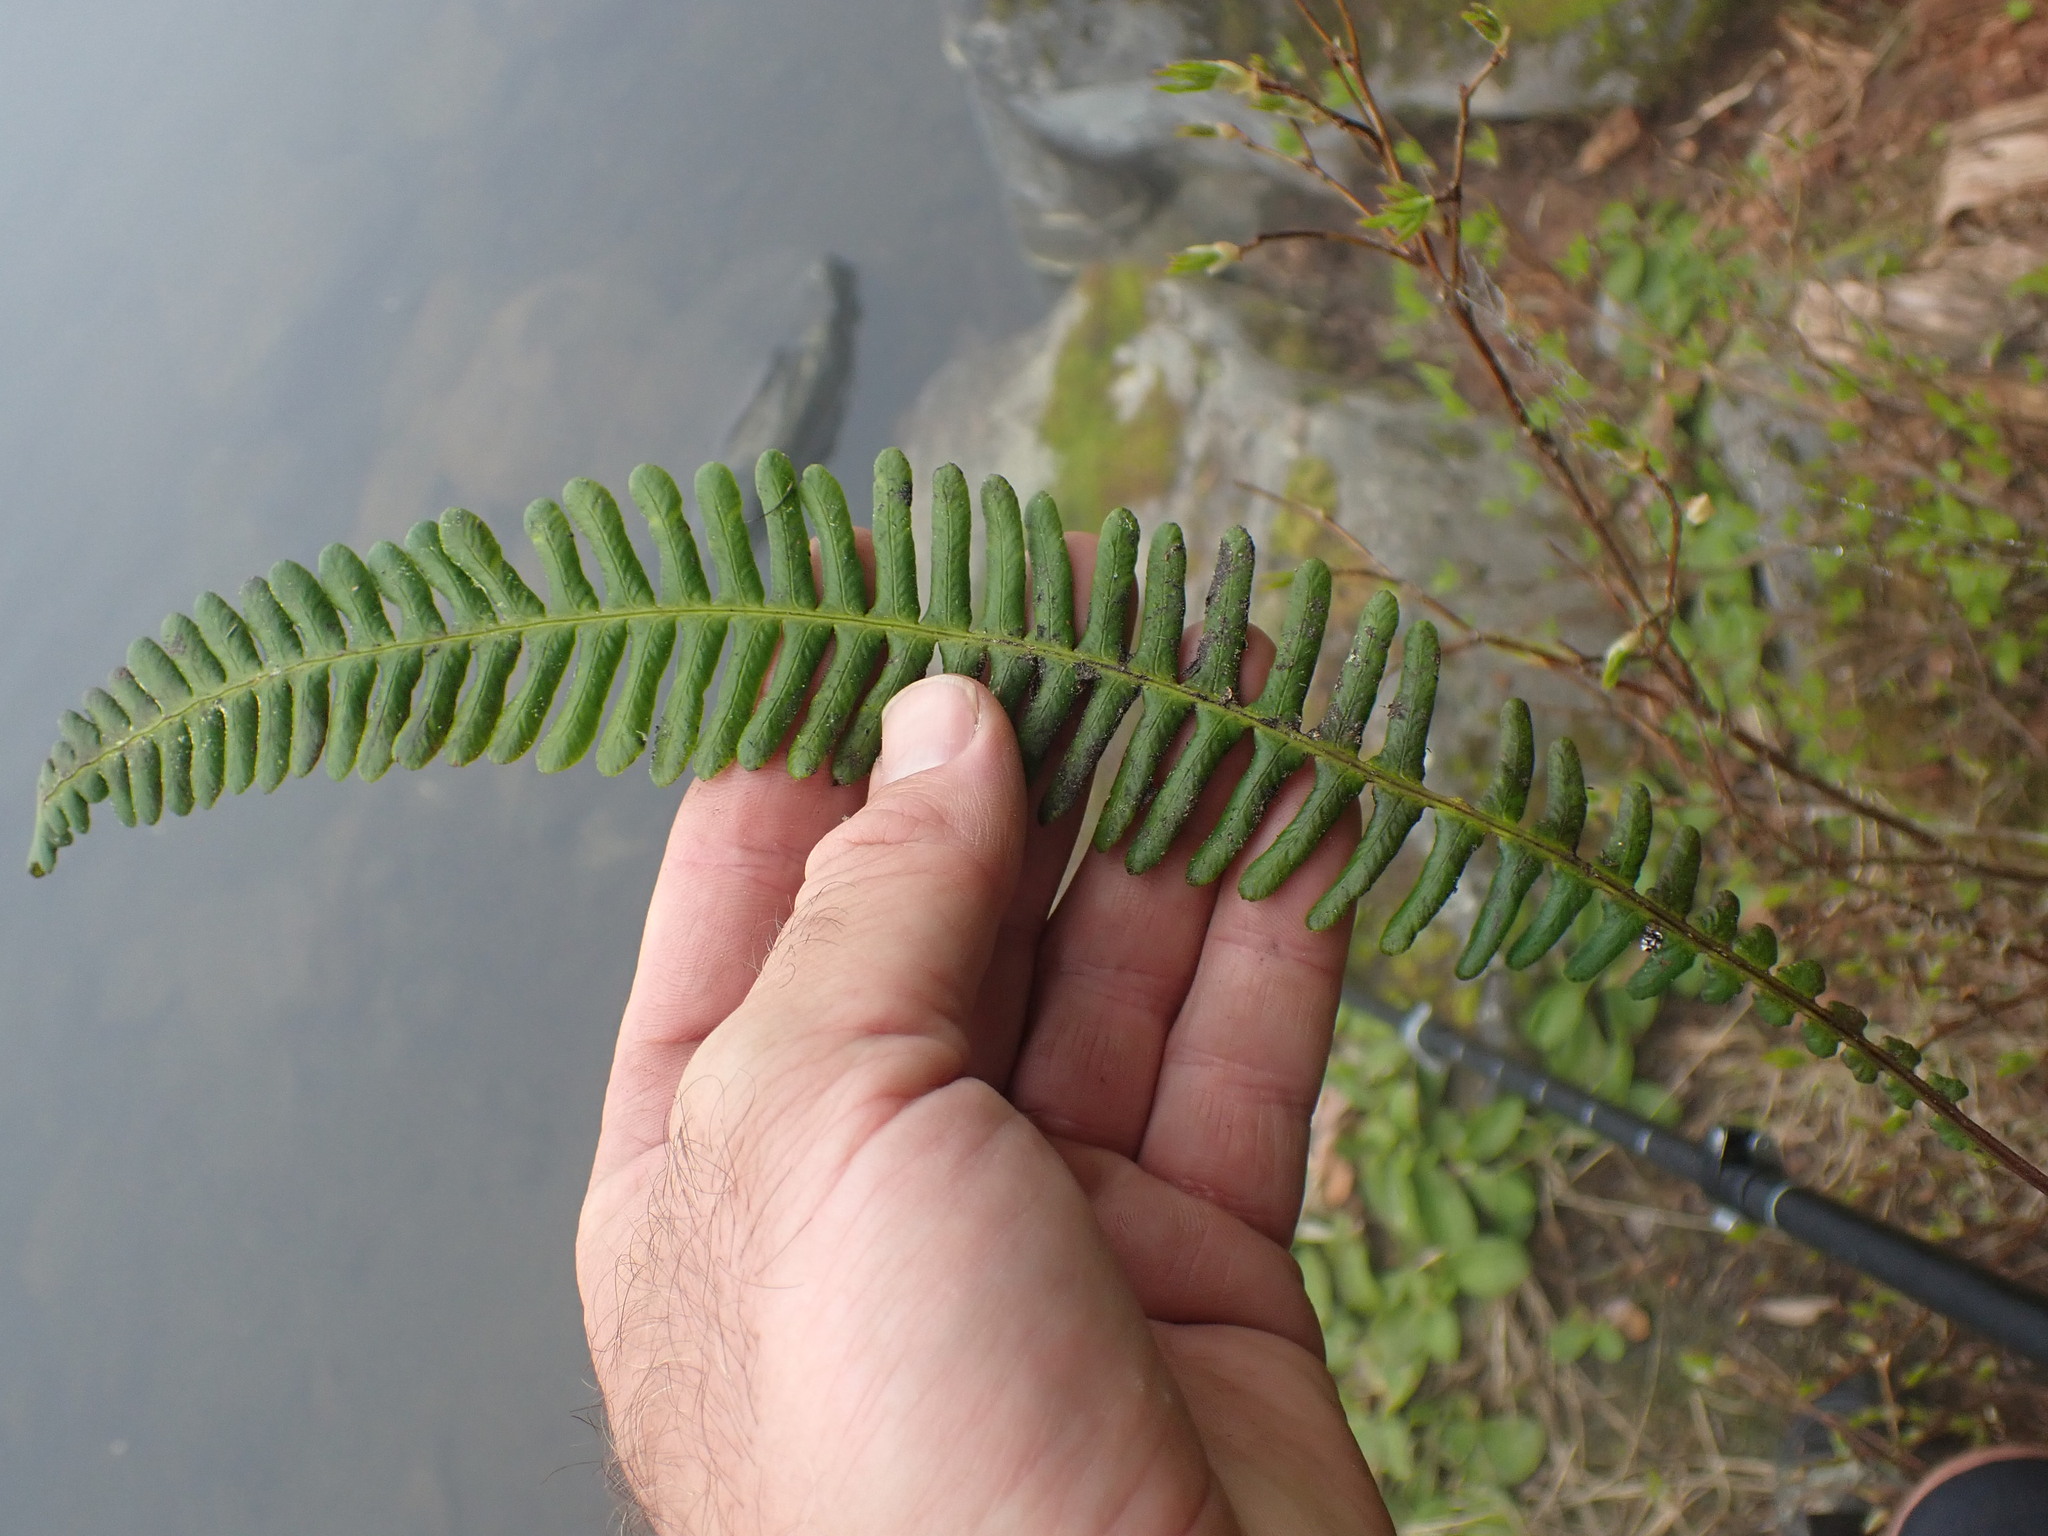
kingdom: Plantae
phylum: Tracheophyta
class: Polypodiopsida
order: Polypodiales
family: Blechnaceae
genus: Struthiopteris
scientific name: Struthiopteris spicant
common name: Deer fern
